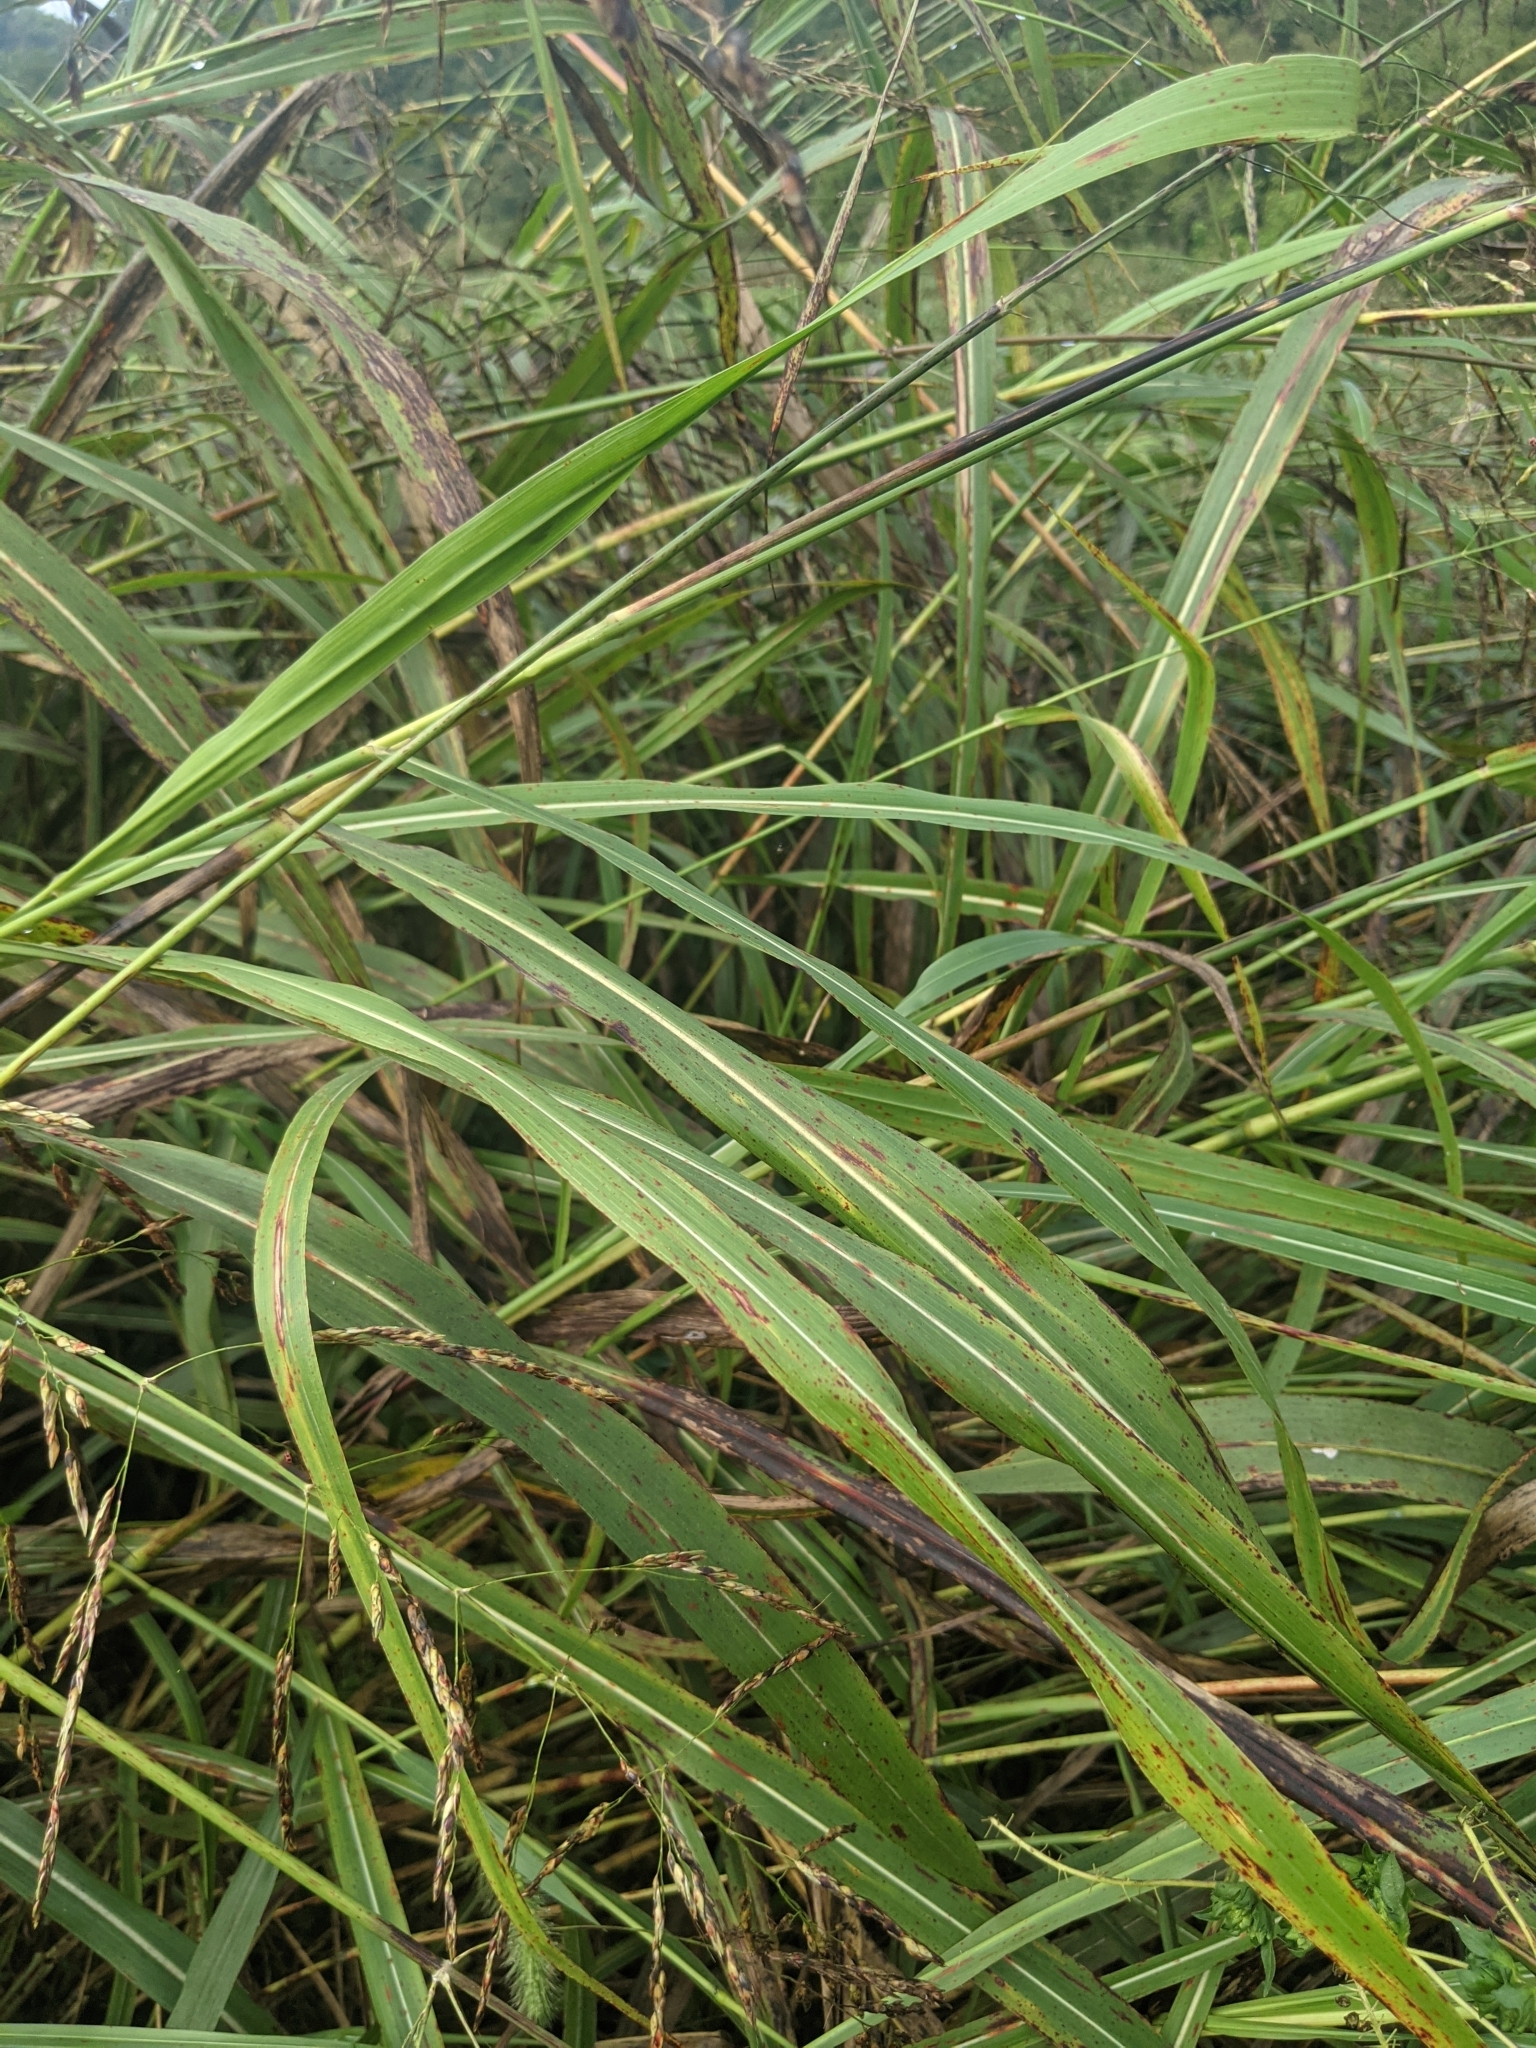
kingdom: Plantae
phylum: Tracheophyta
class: Liliopsida
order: Poales
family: Poaceae
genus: Sorghum
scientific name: Sorghum halepense
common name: Johnson-grass
